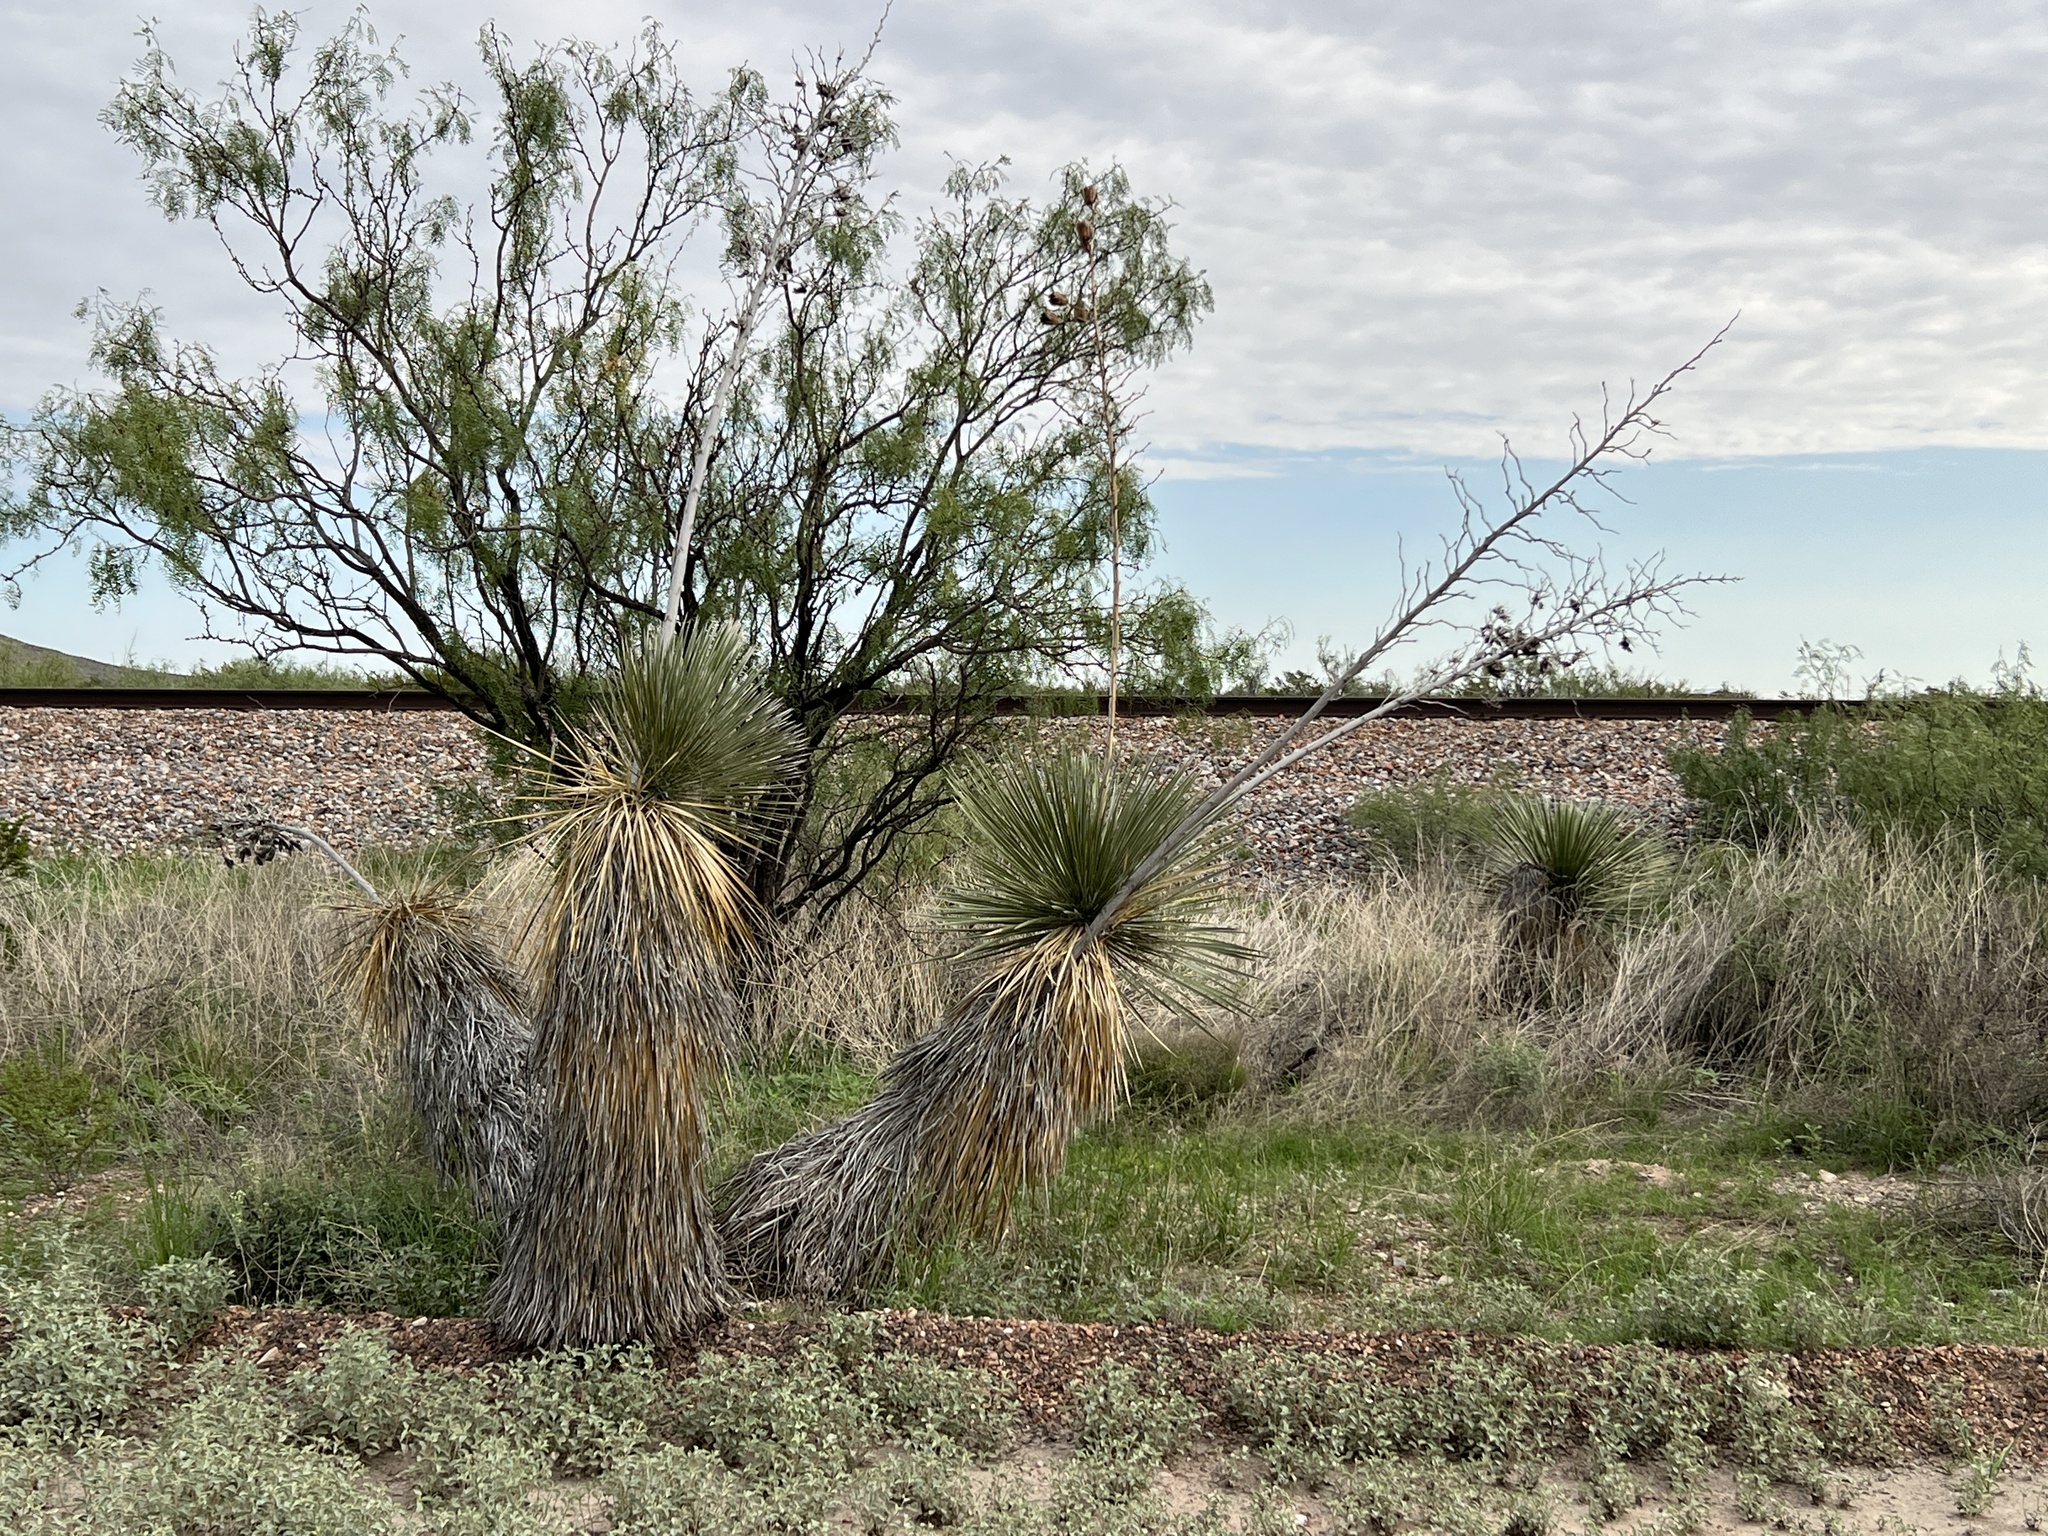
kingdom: Plantae
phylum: Tracheophyta
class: Liliopsida
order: Asparagales
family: Asparagaceae
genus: Yucca
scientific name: Yucca elata
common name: Palmella
